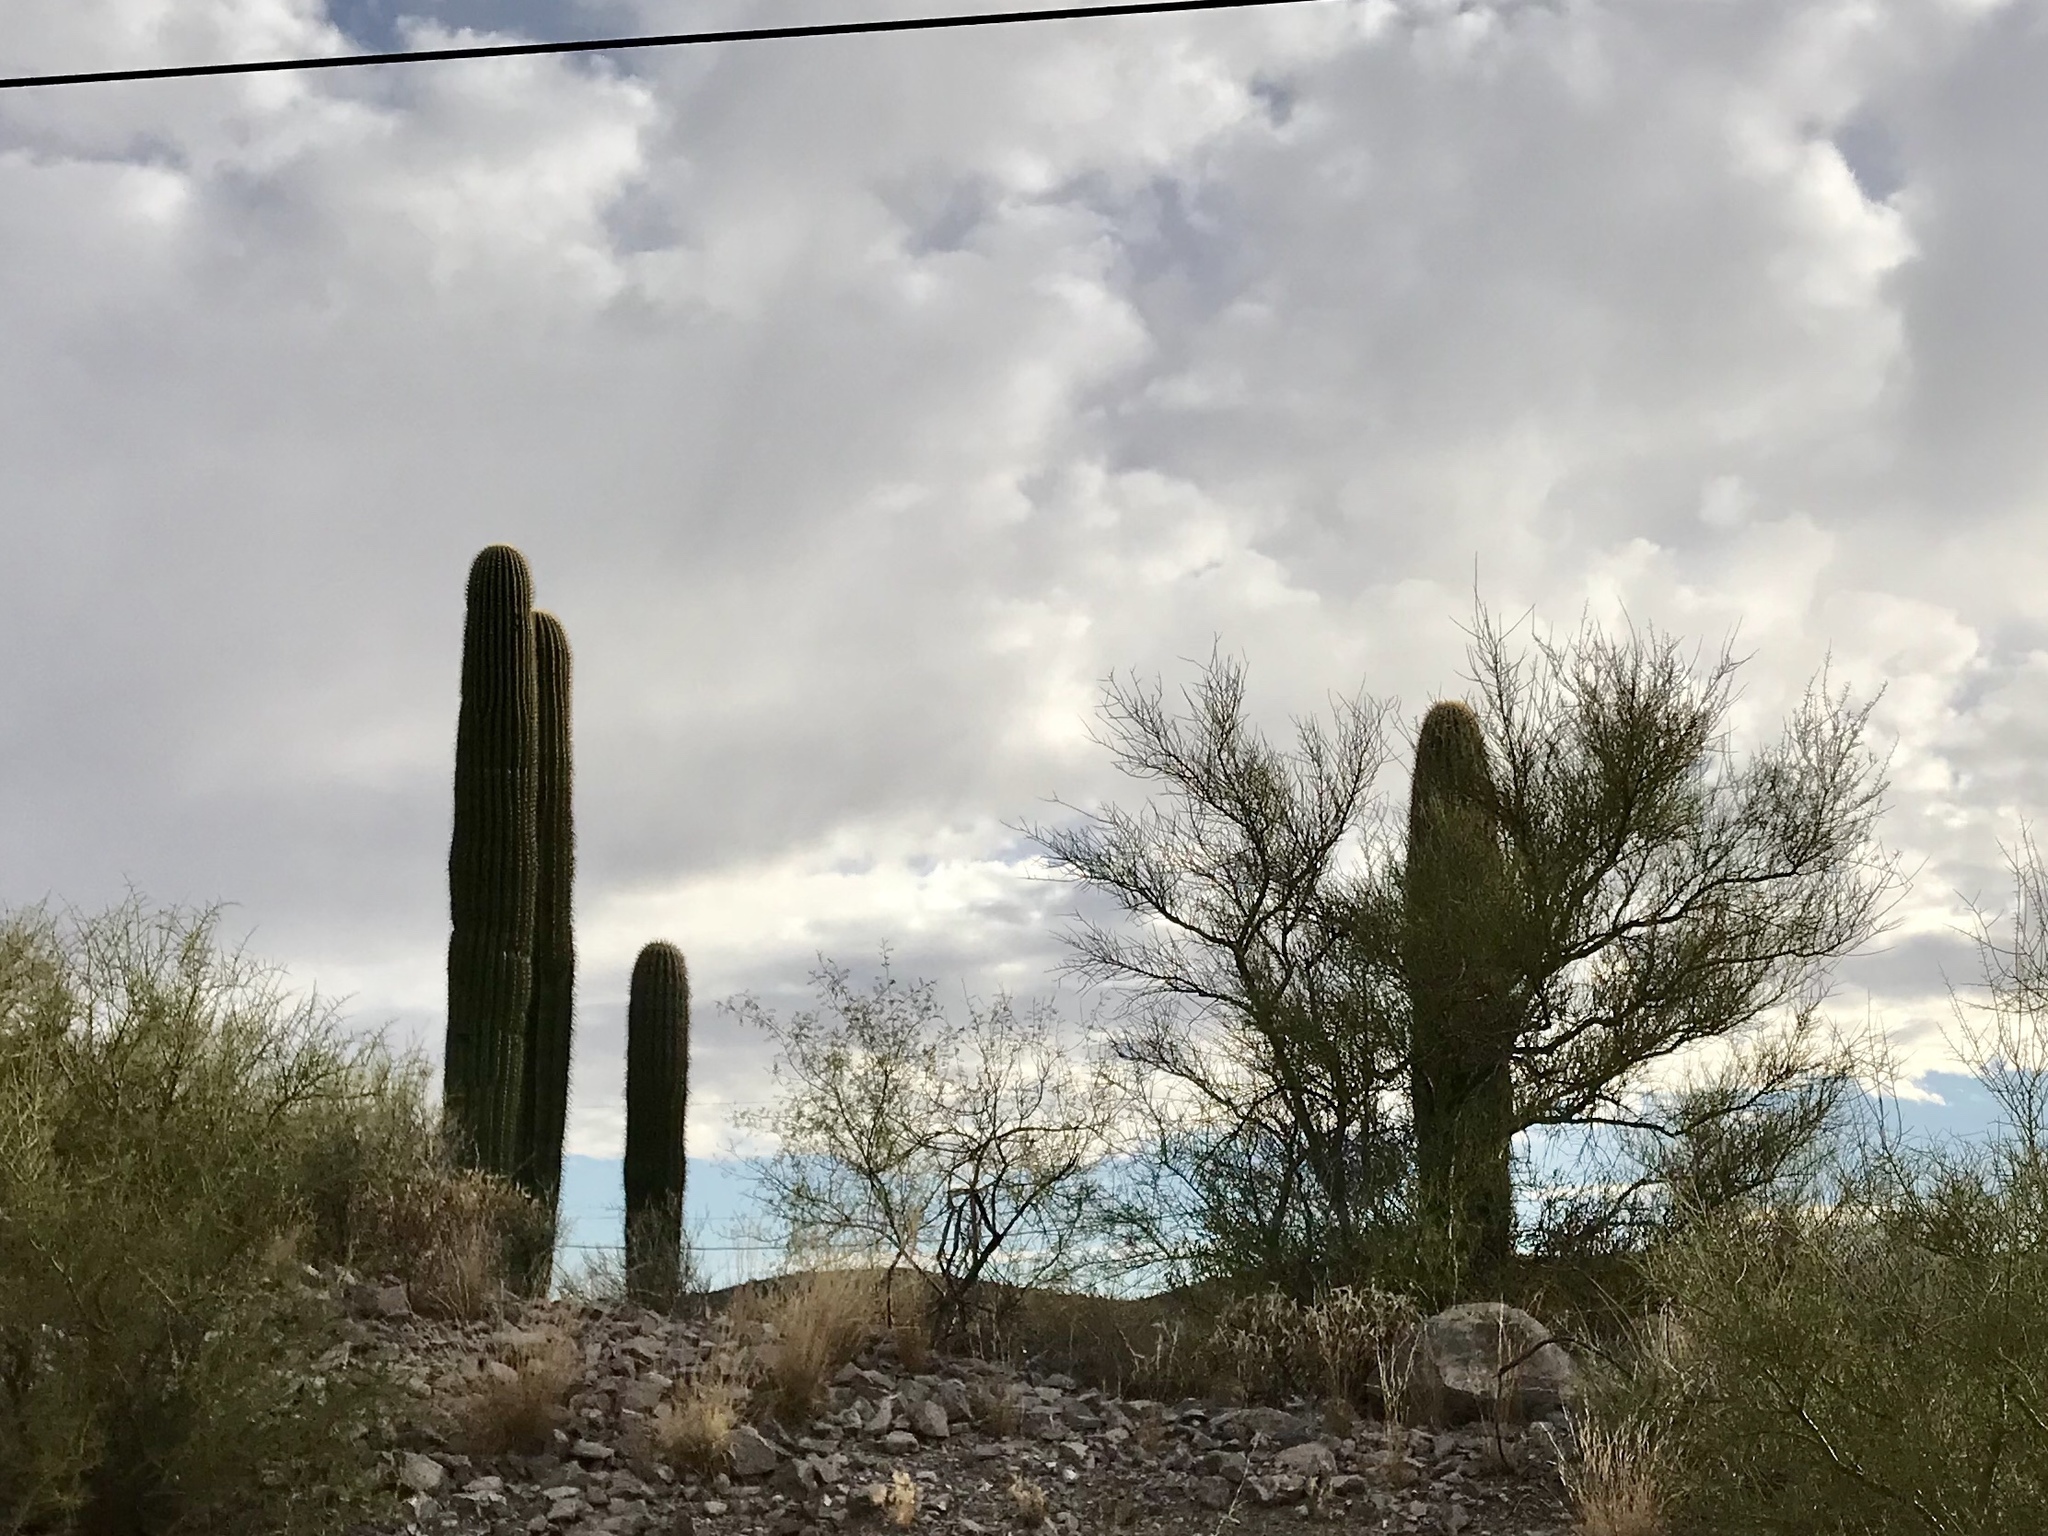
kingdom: Plantae
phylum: Tracheophyta
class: Magnoliopsida
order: Caryophyllales
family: Cactaceae
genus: Carnegiea
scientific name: Carnegiea gigantea
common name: Saguaro
